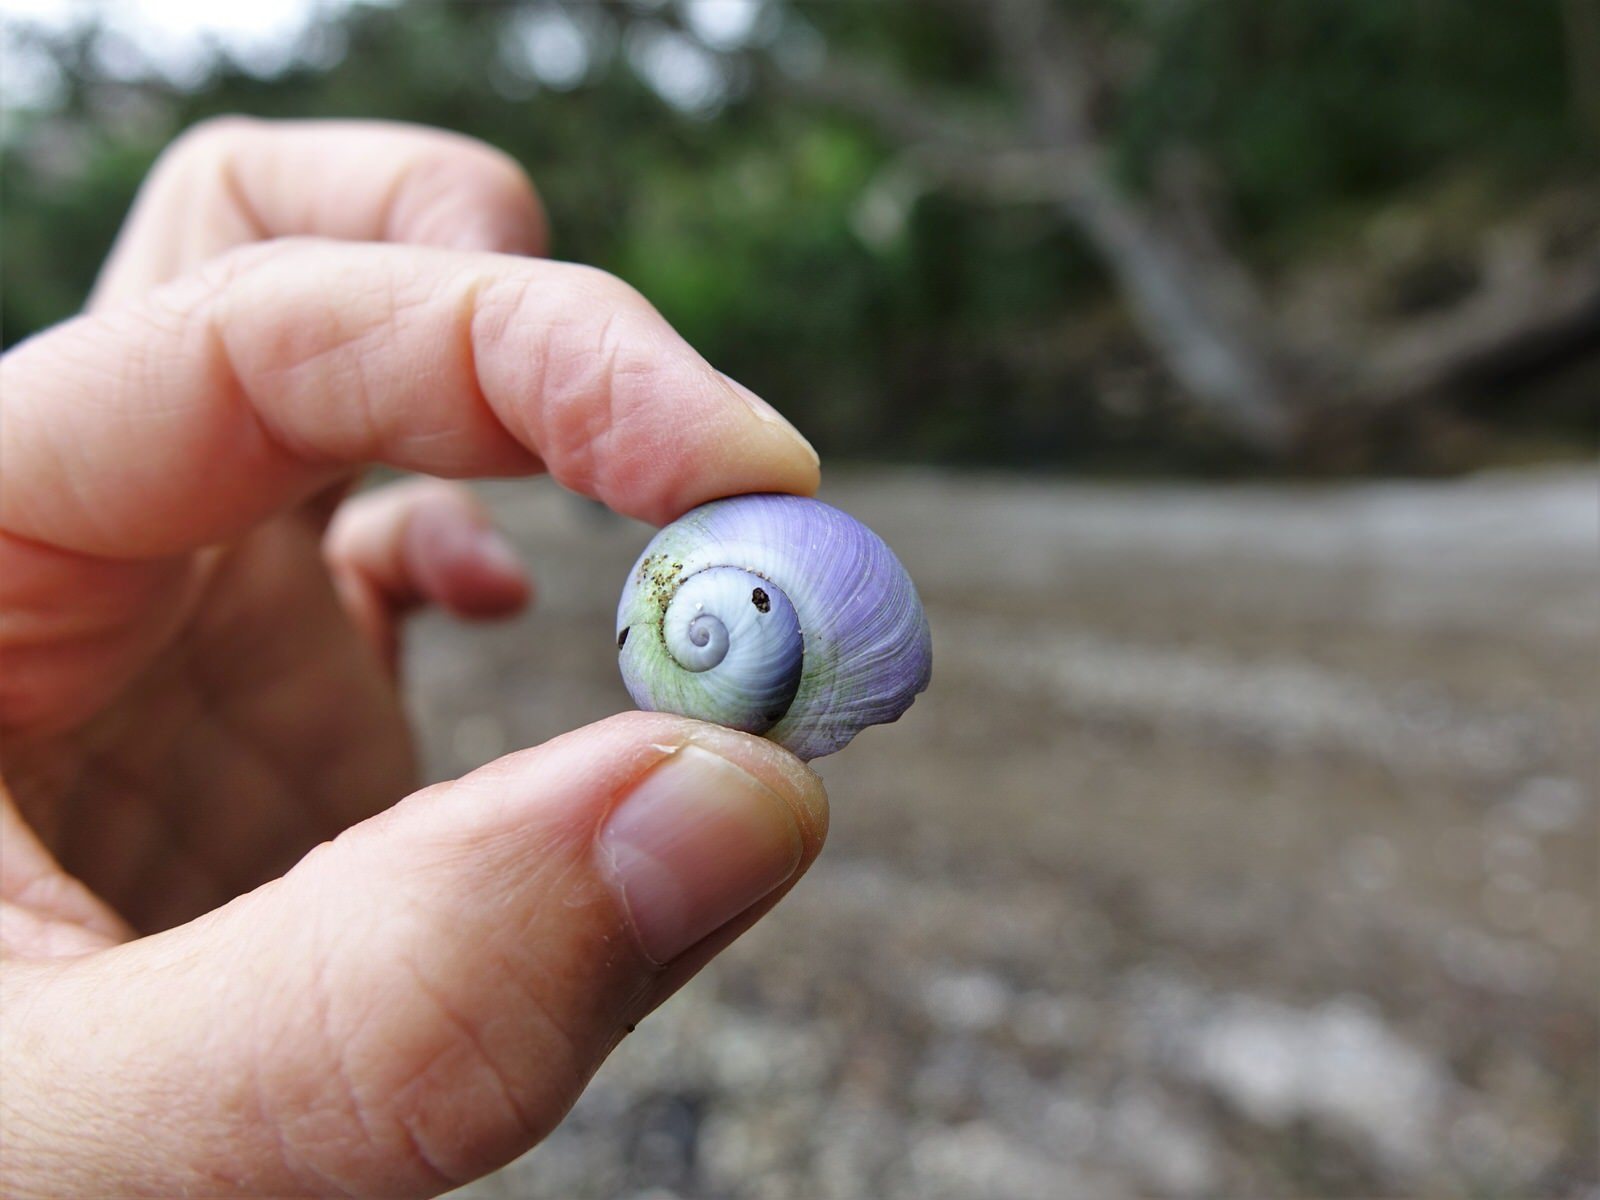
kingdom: Animalia
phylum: Mollusca
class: Gastropoda
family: Epitoniidae
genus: Janthina
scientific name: Janthina janthina
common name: Common janthina
